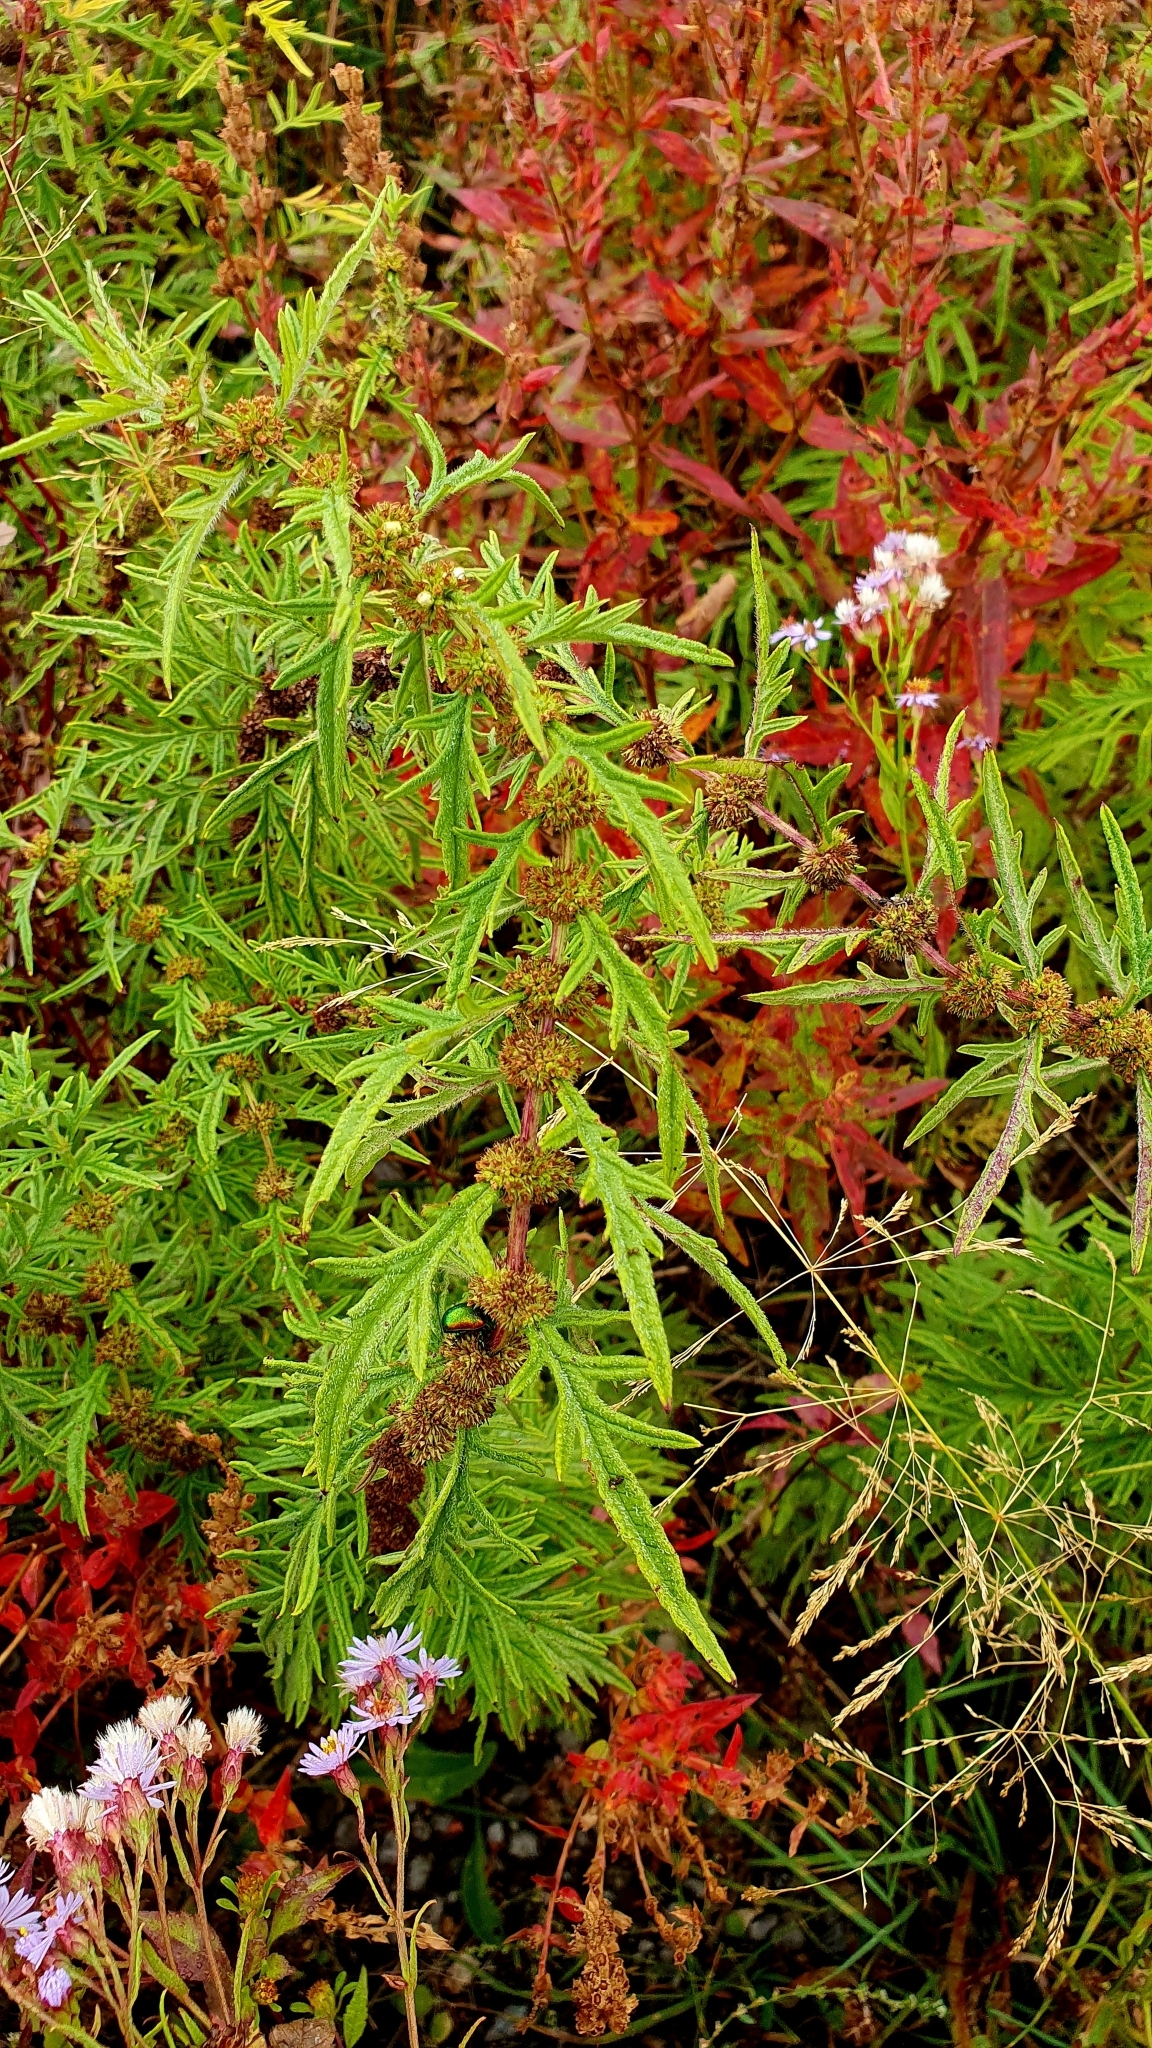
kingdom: Plantae
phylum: Tracheophyta
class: Magnoliopsida
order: Lamiales
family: Lamiaceae
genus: Lycopus
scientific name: Lycopus exaltatus
